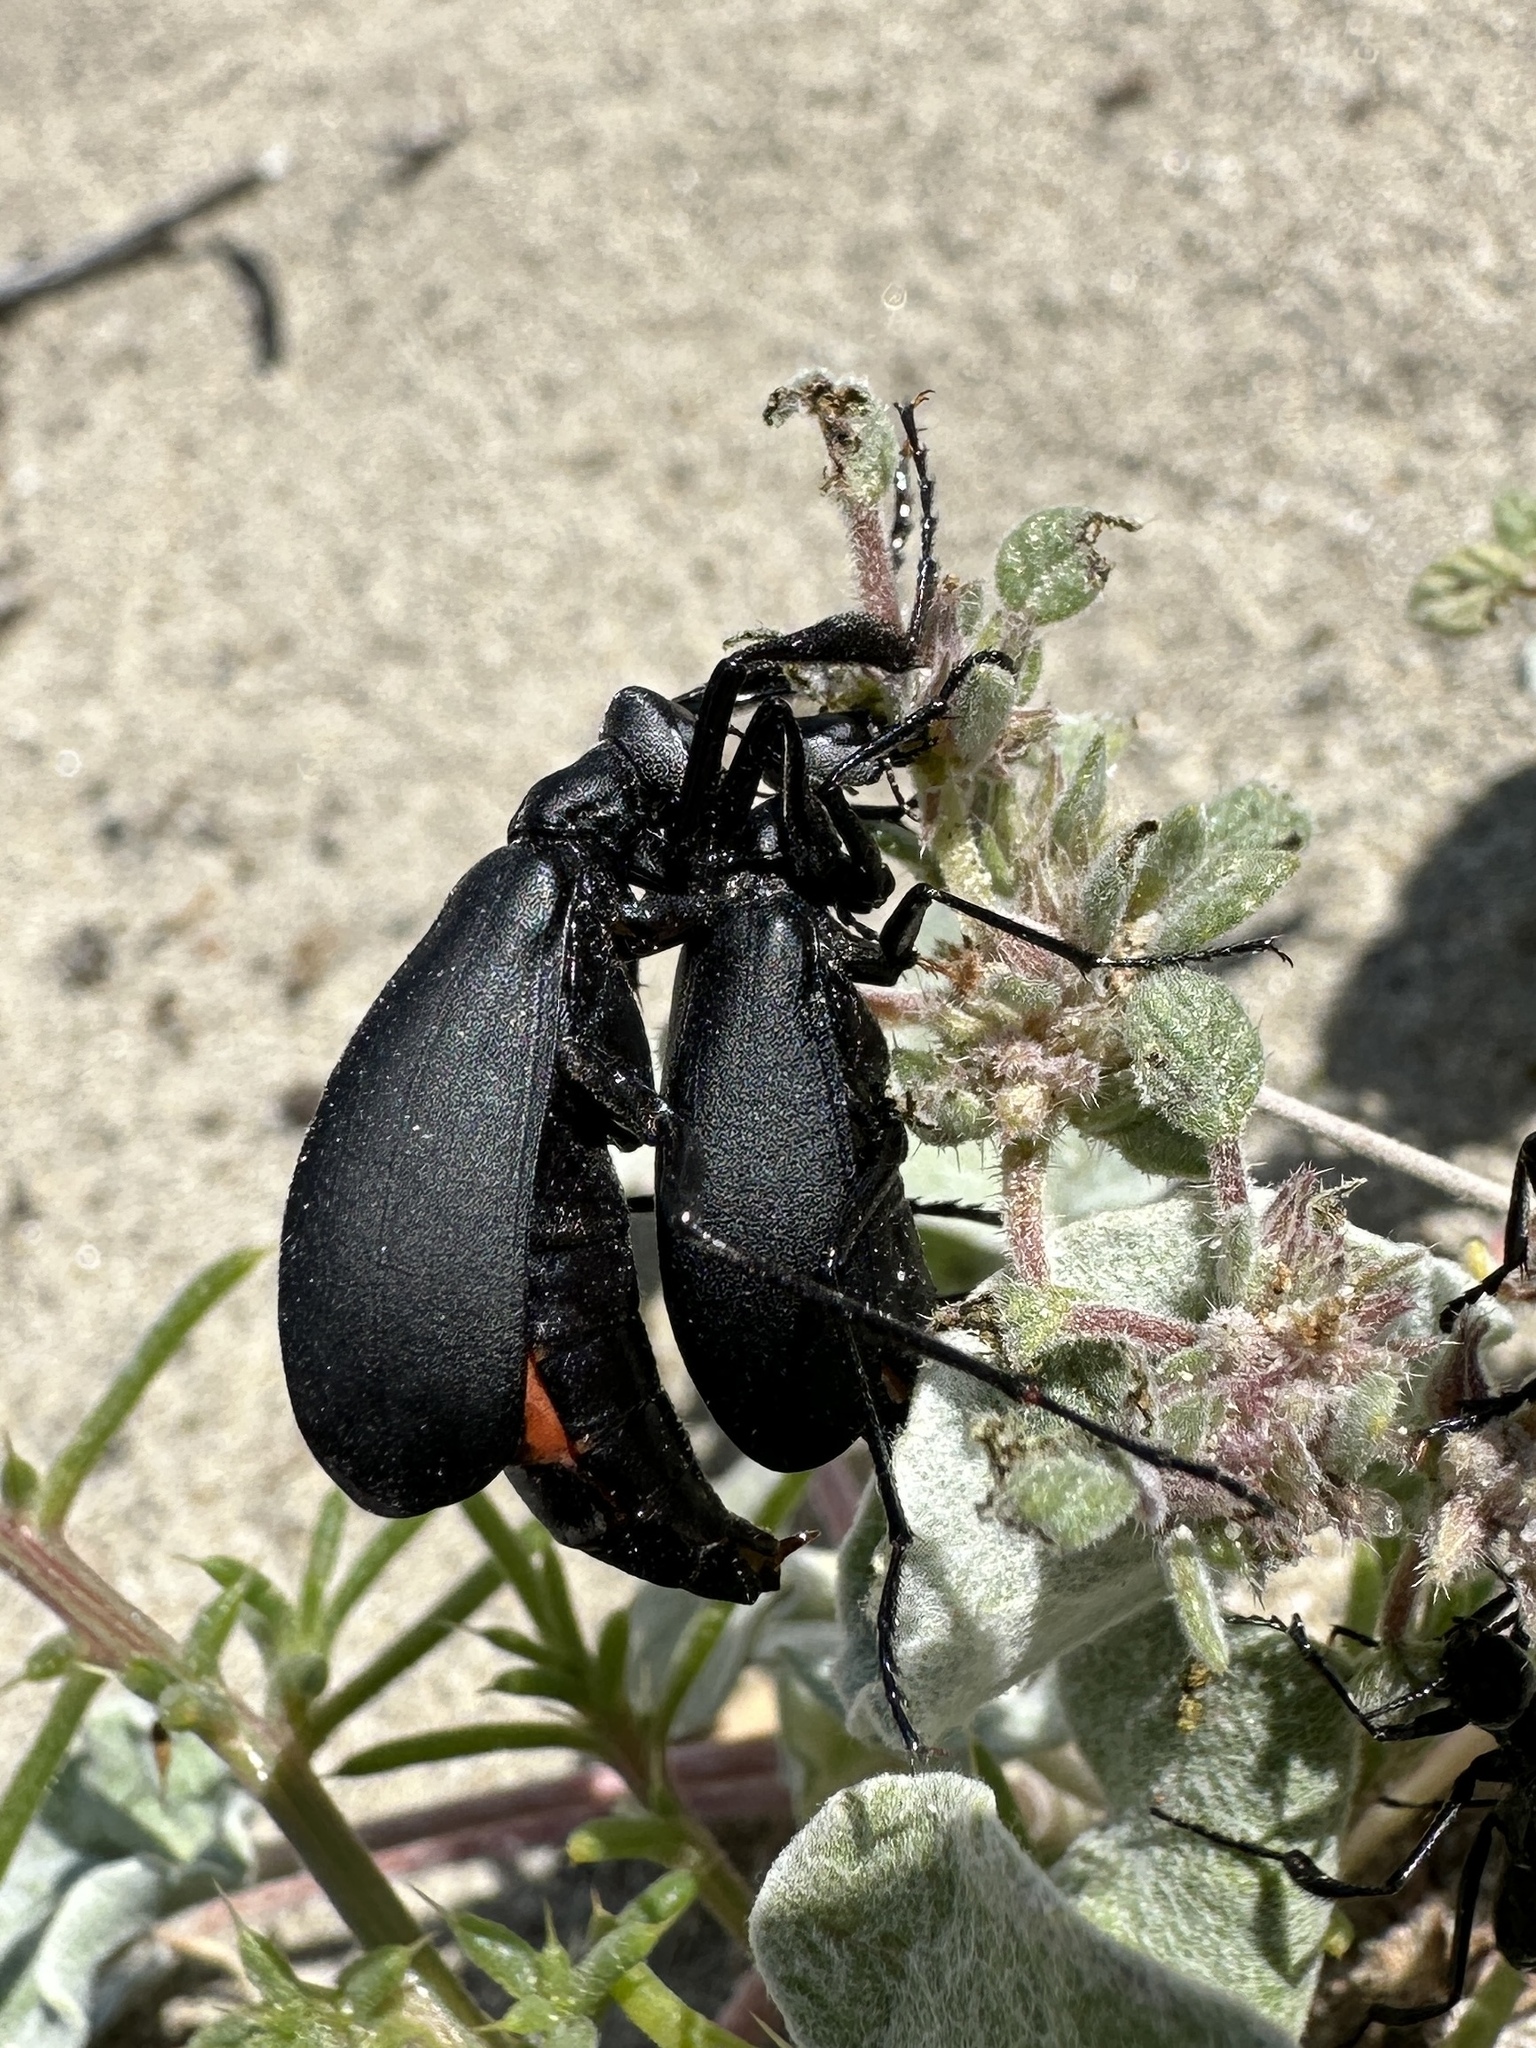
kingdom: Animalia
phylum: Arthropoda
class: Insecta
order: Coleoptera
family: Meloidae
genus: Phodaga
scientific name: Phodaga alticeps
